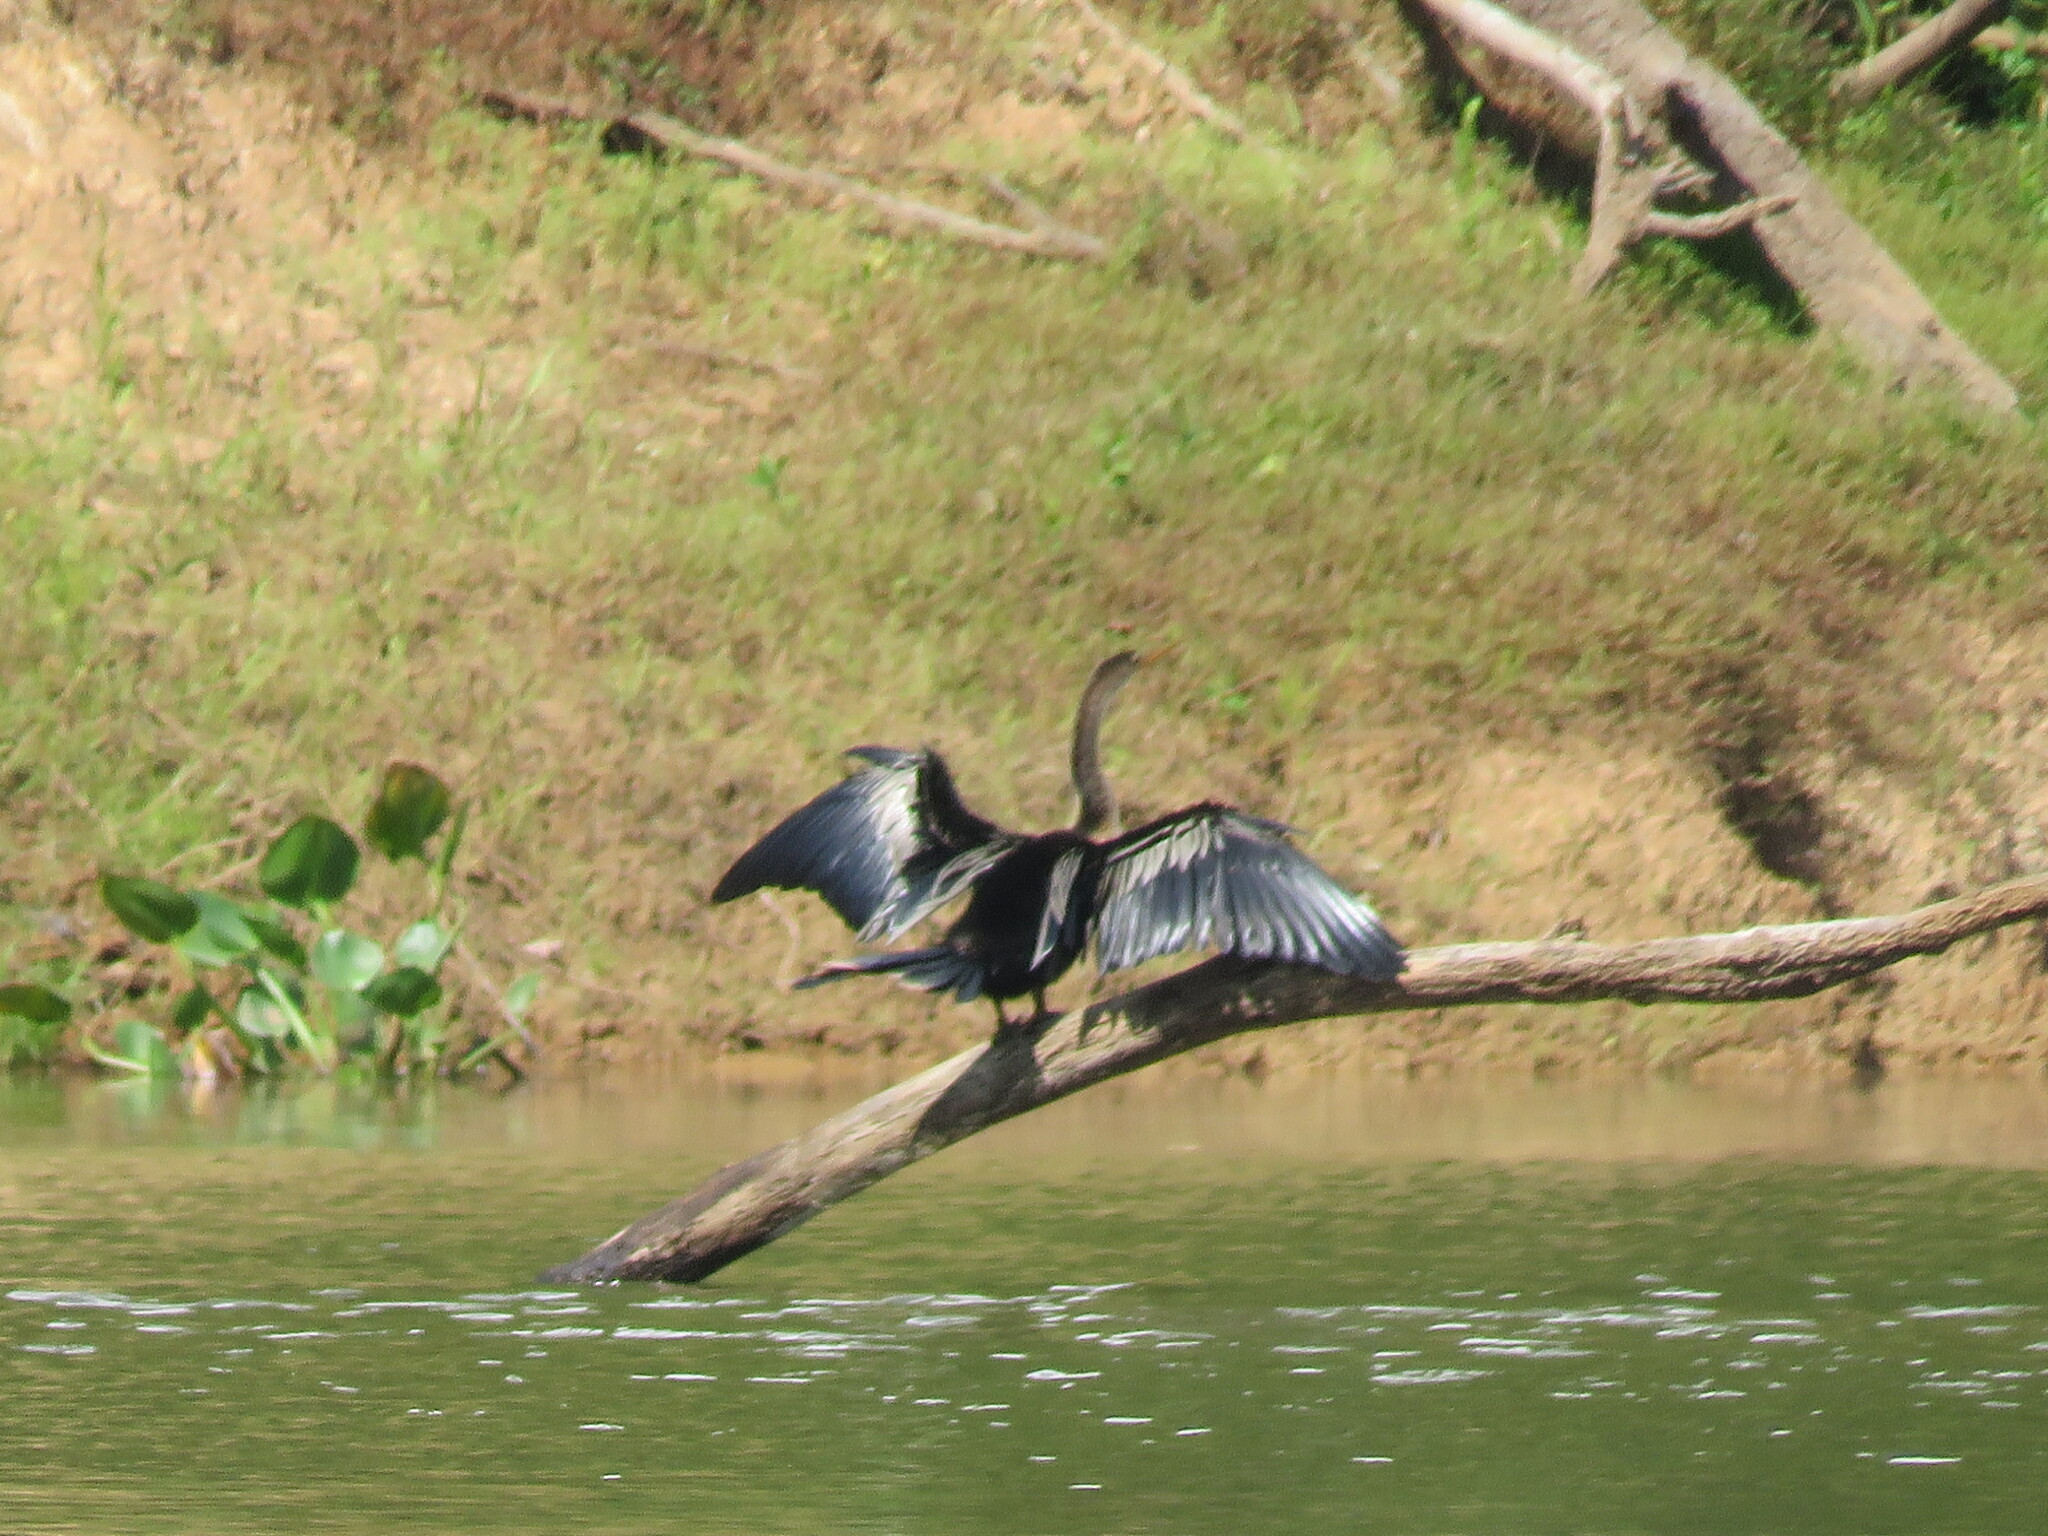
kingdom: Animalia
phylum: Chordata
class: Aves
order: Suliformes
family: Anhingidae
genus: Anhinga
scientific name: Anhinga anhinga
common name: Anhinga
